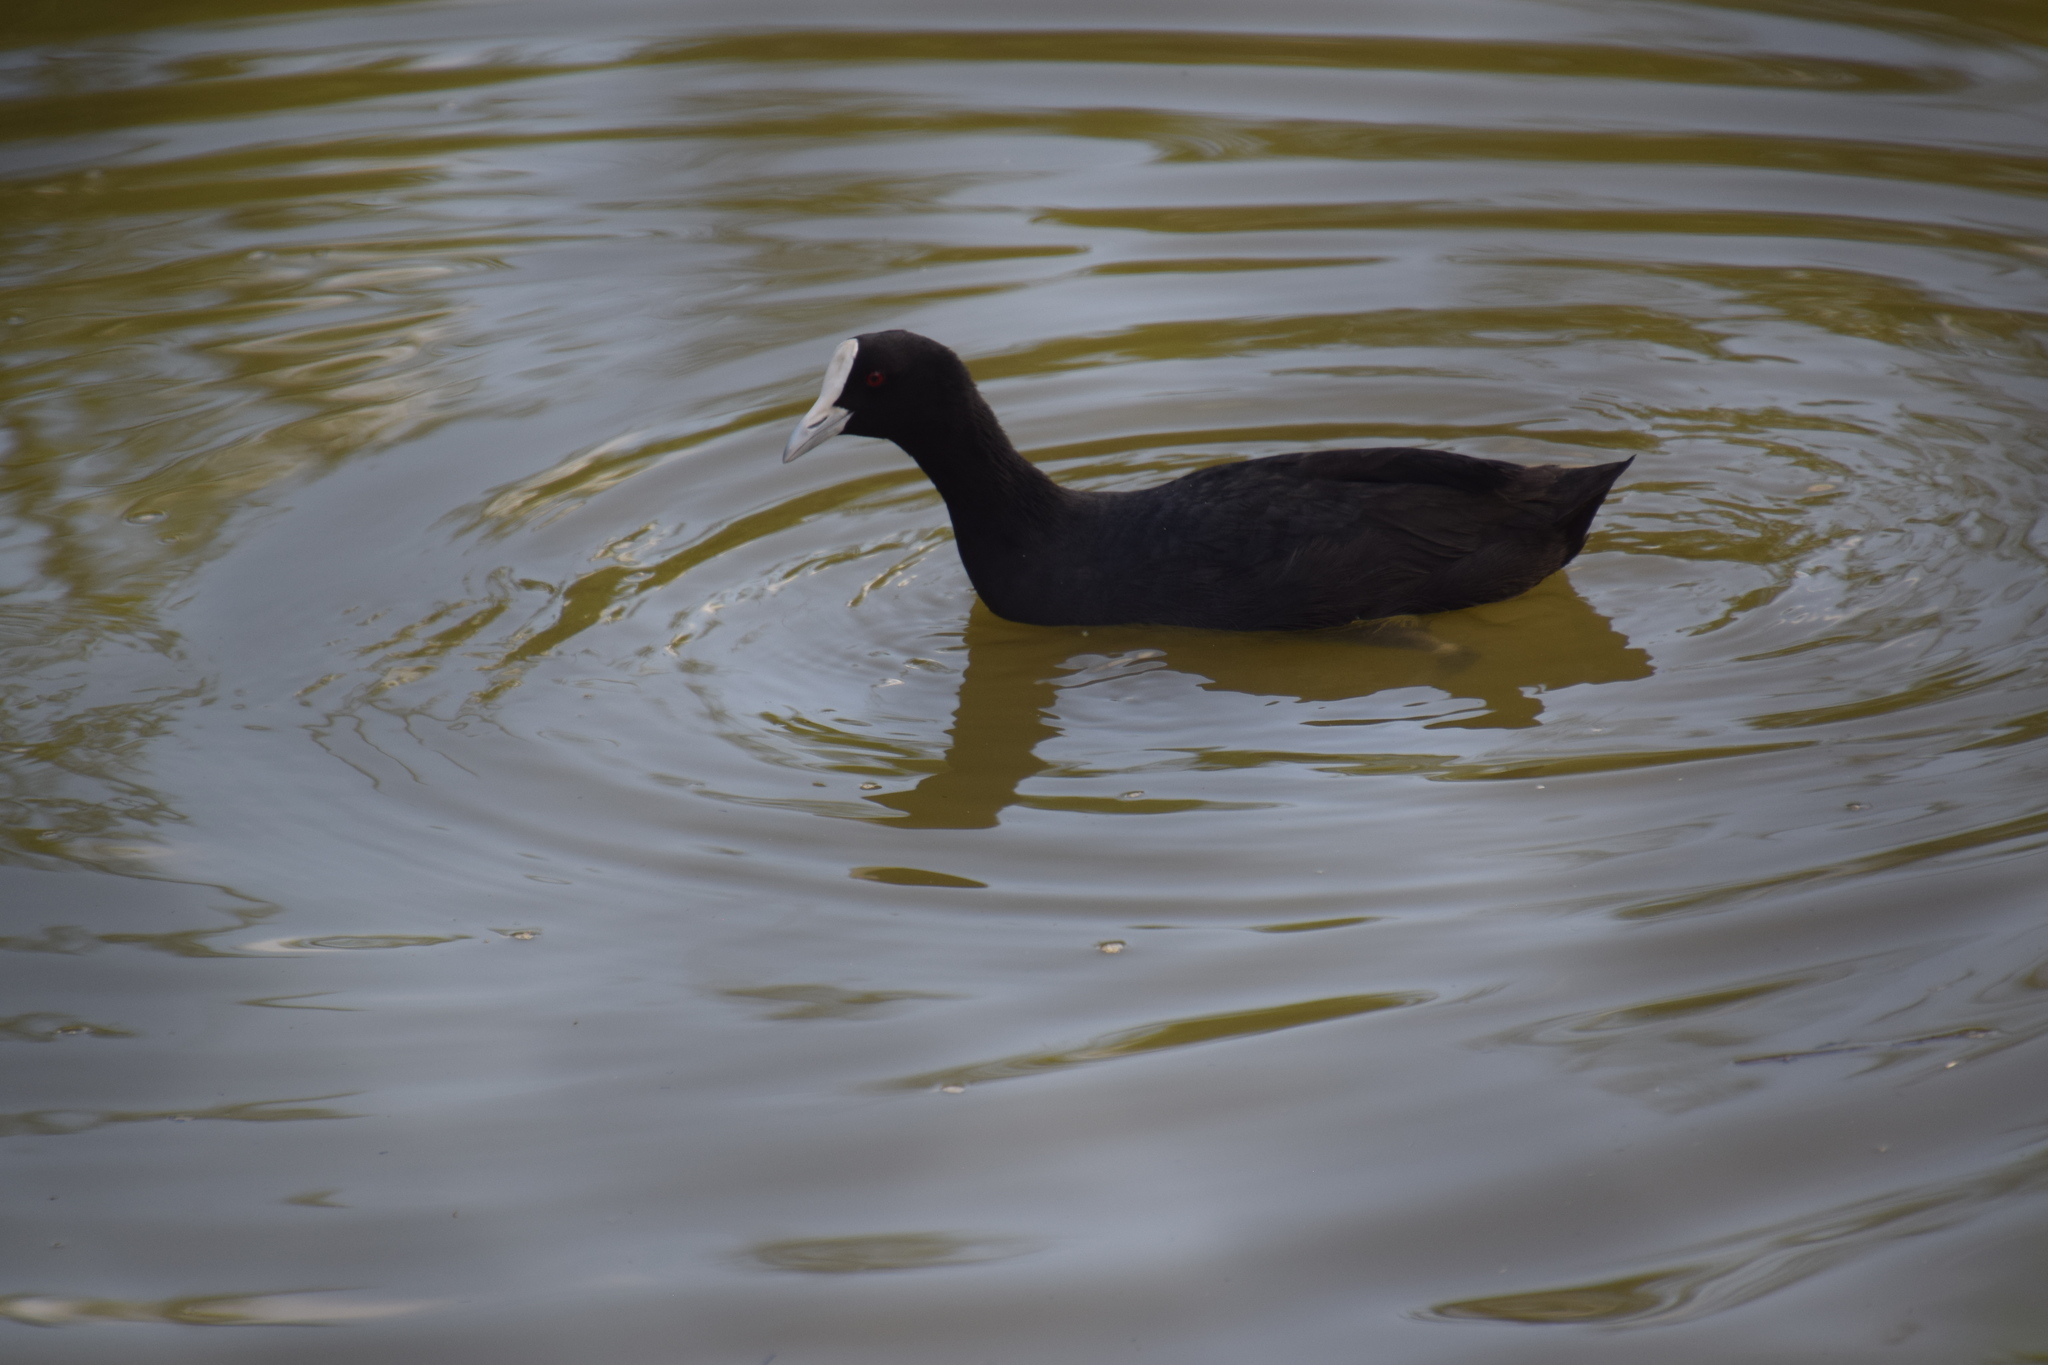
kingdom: Animalia
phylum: Chordata
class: Aves
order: Gruiformes
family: Rallidae
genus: Fulica
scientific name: Fulica atra
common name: Eurasian coot
